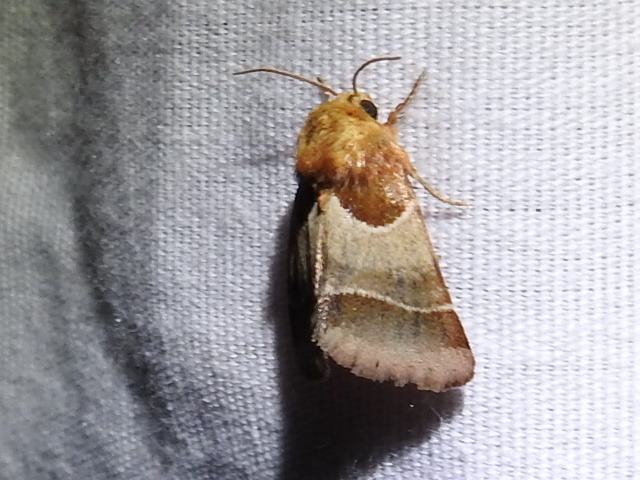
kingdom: Animalia
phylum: Arthropoda
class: Insecta
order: Lepidoptera
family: Noctuidae
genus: Schinia
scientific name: Schinia arcigera
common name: Arcigera flower moth
